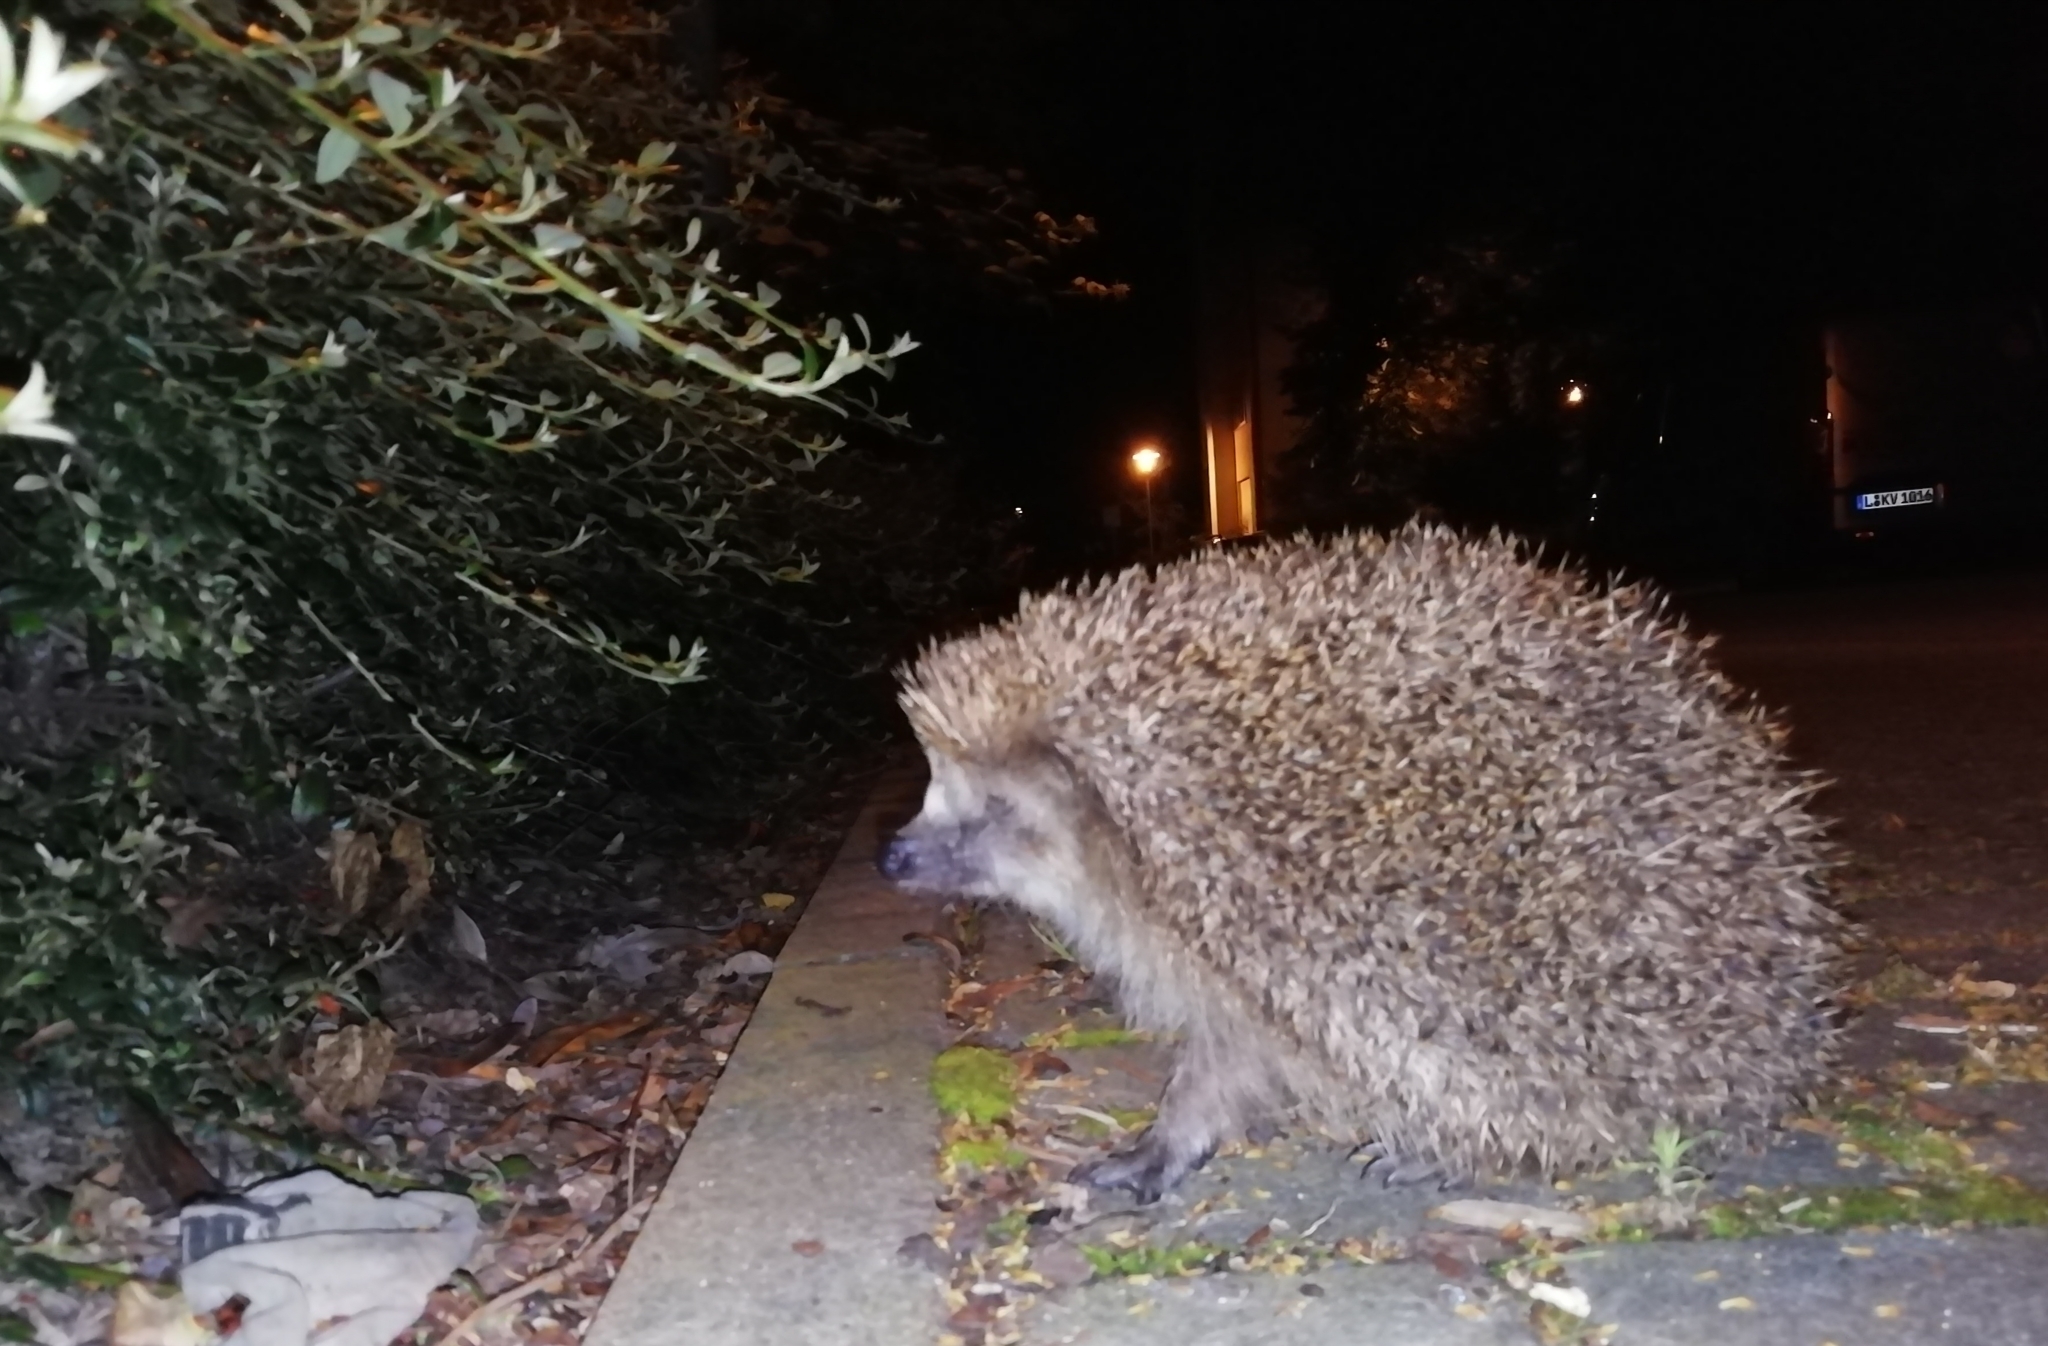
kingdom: Animalia
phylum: Chordata
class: Mammalia
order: Erinaceomorpha
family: Erinaceidae
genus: Erinaceus
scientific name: Erinaceus europaeus
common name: West european hedgehog
